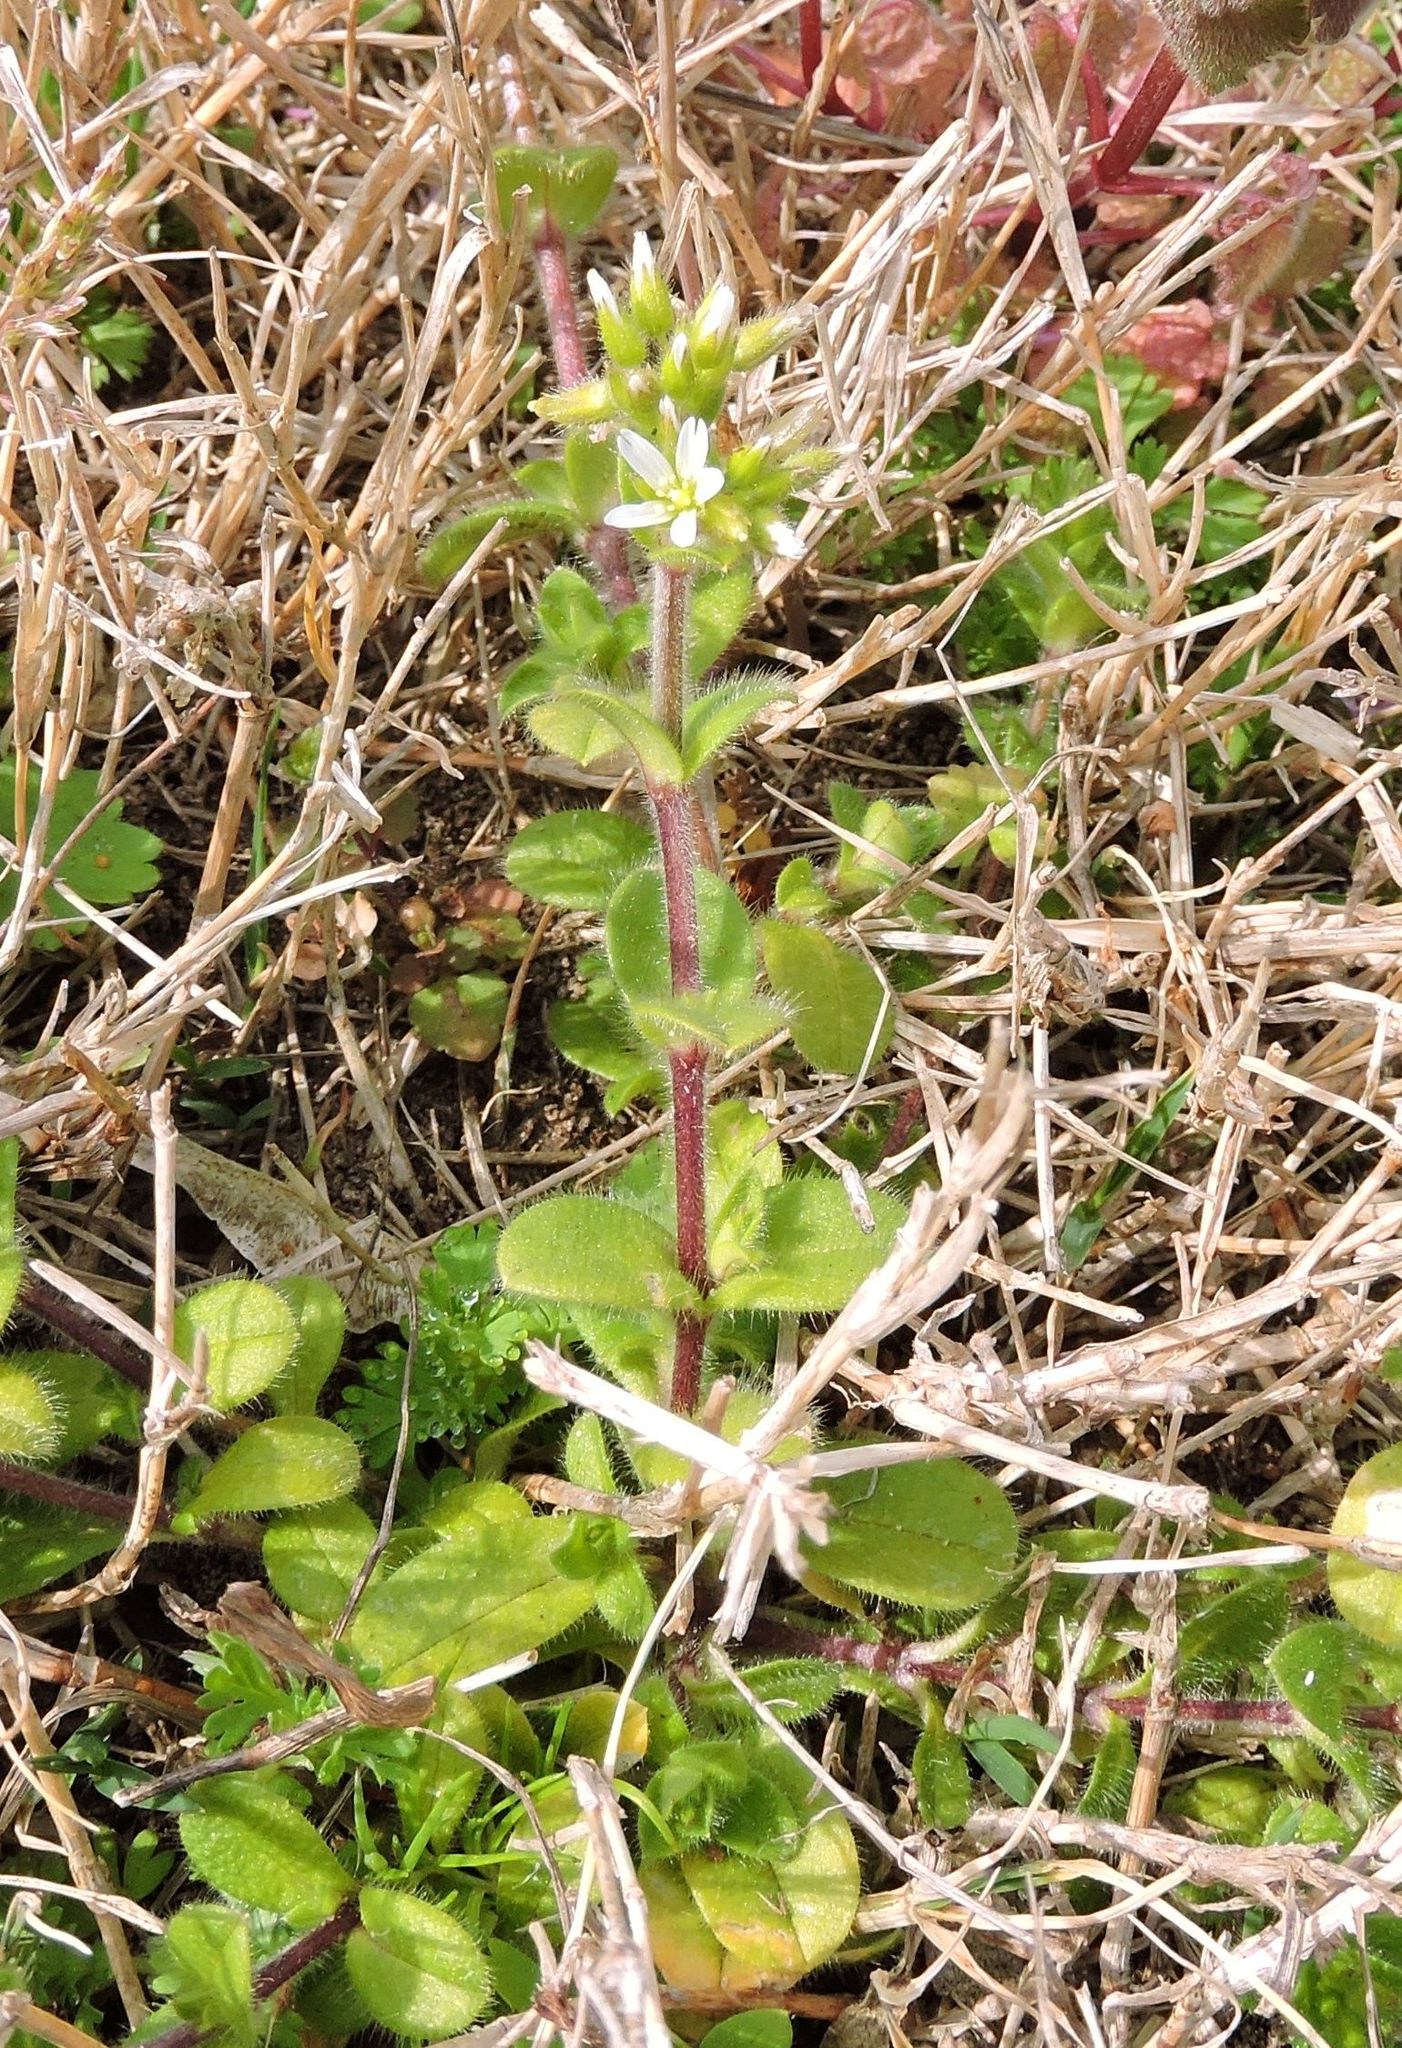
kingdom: Plantae
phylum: Tracheophyta
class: Magnoliopsida
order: Caryophyllales
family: Caryophyllaceae
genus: Cerastium
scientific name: Cerastium fontanum
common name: Common mouse-ear
